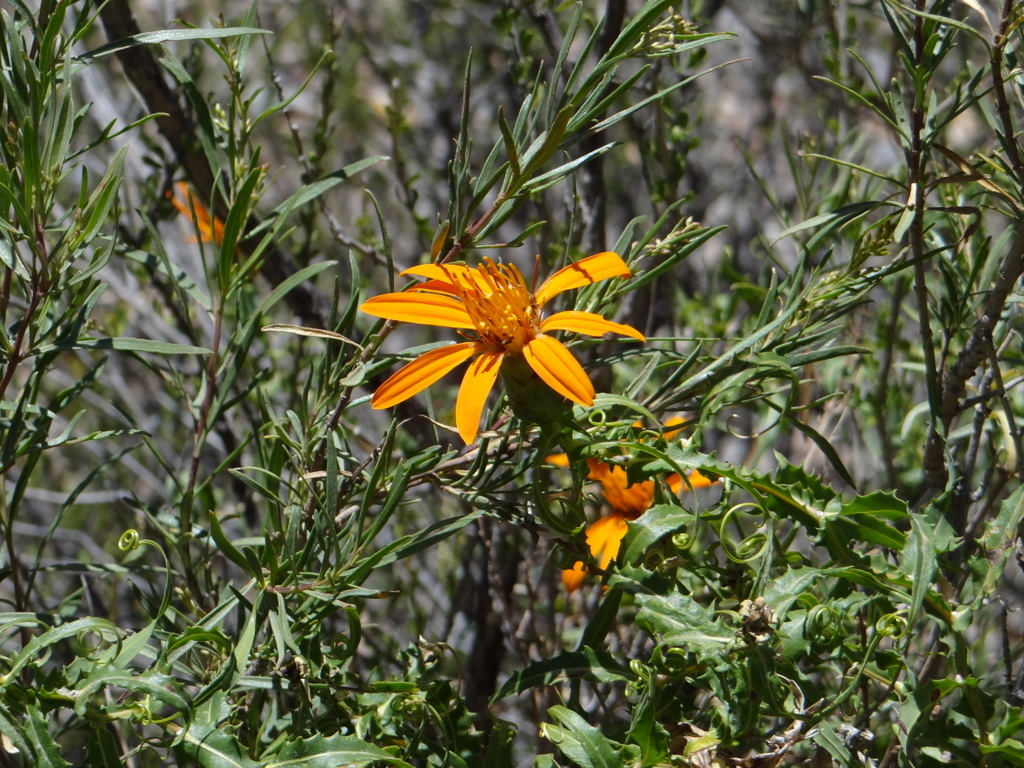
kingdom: Plantae
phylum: Tracheophyta
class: Magnoliopsida
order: Asterales
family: Asteraceae
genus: Mutisia
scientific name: Mutisia subspinosa
